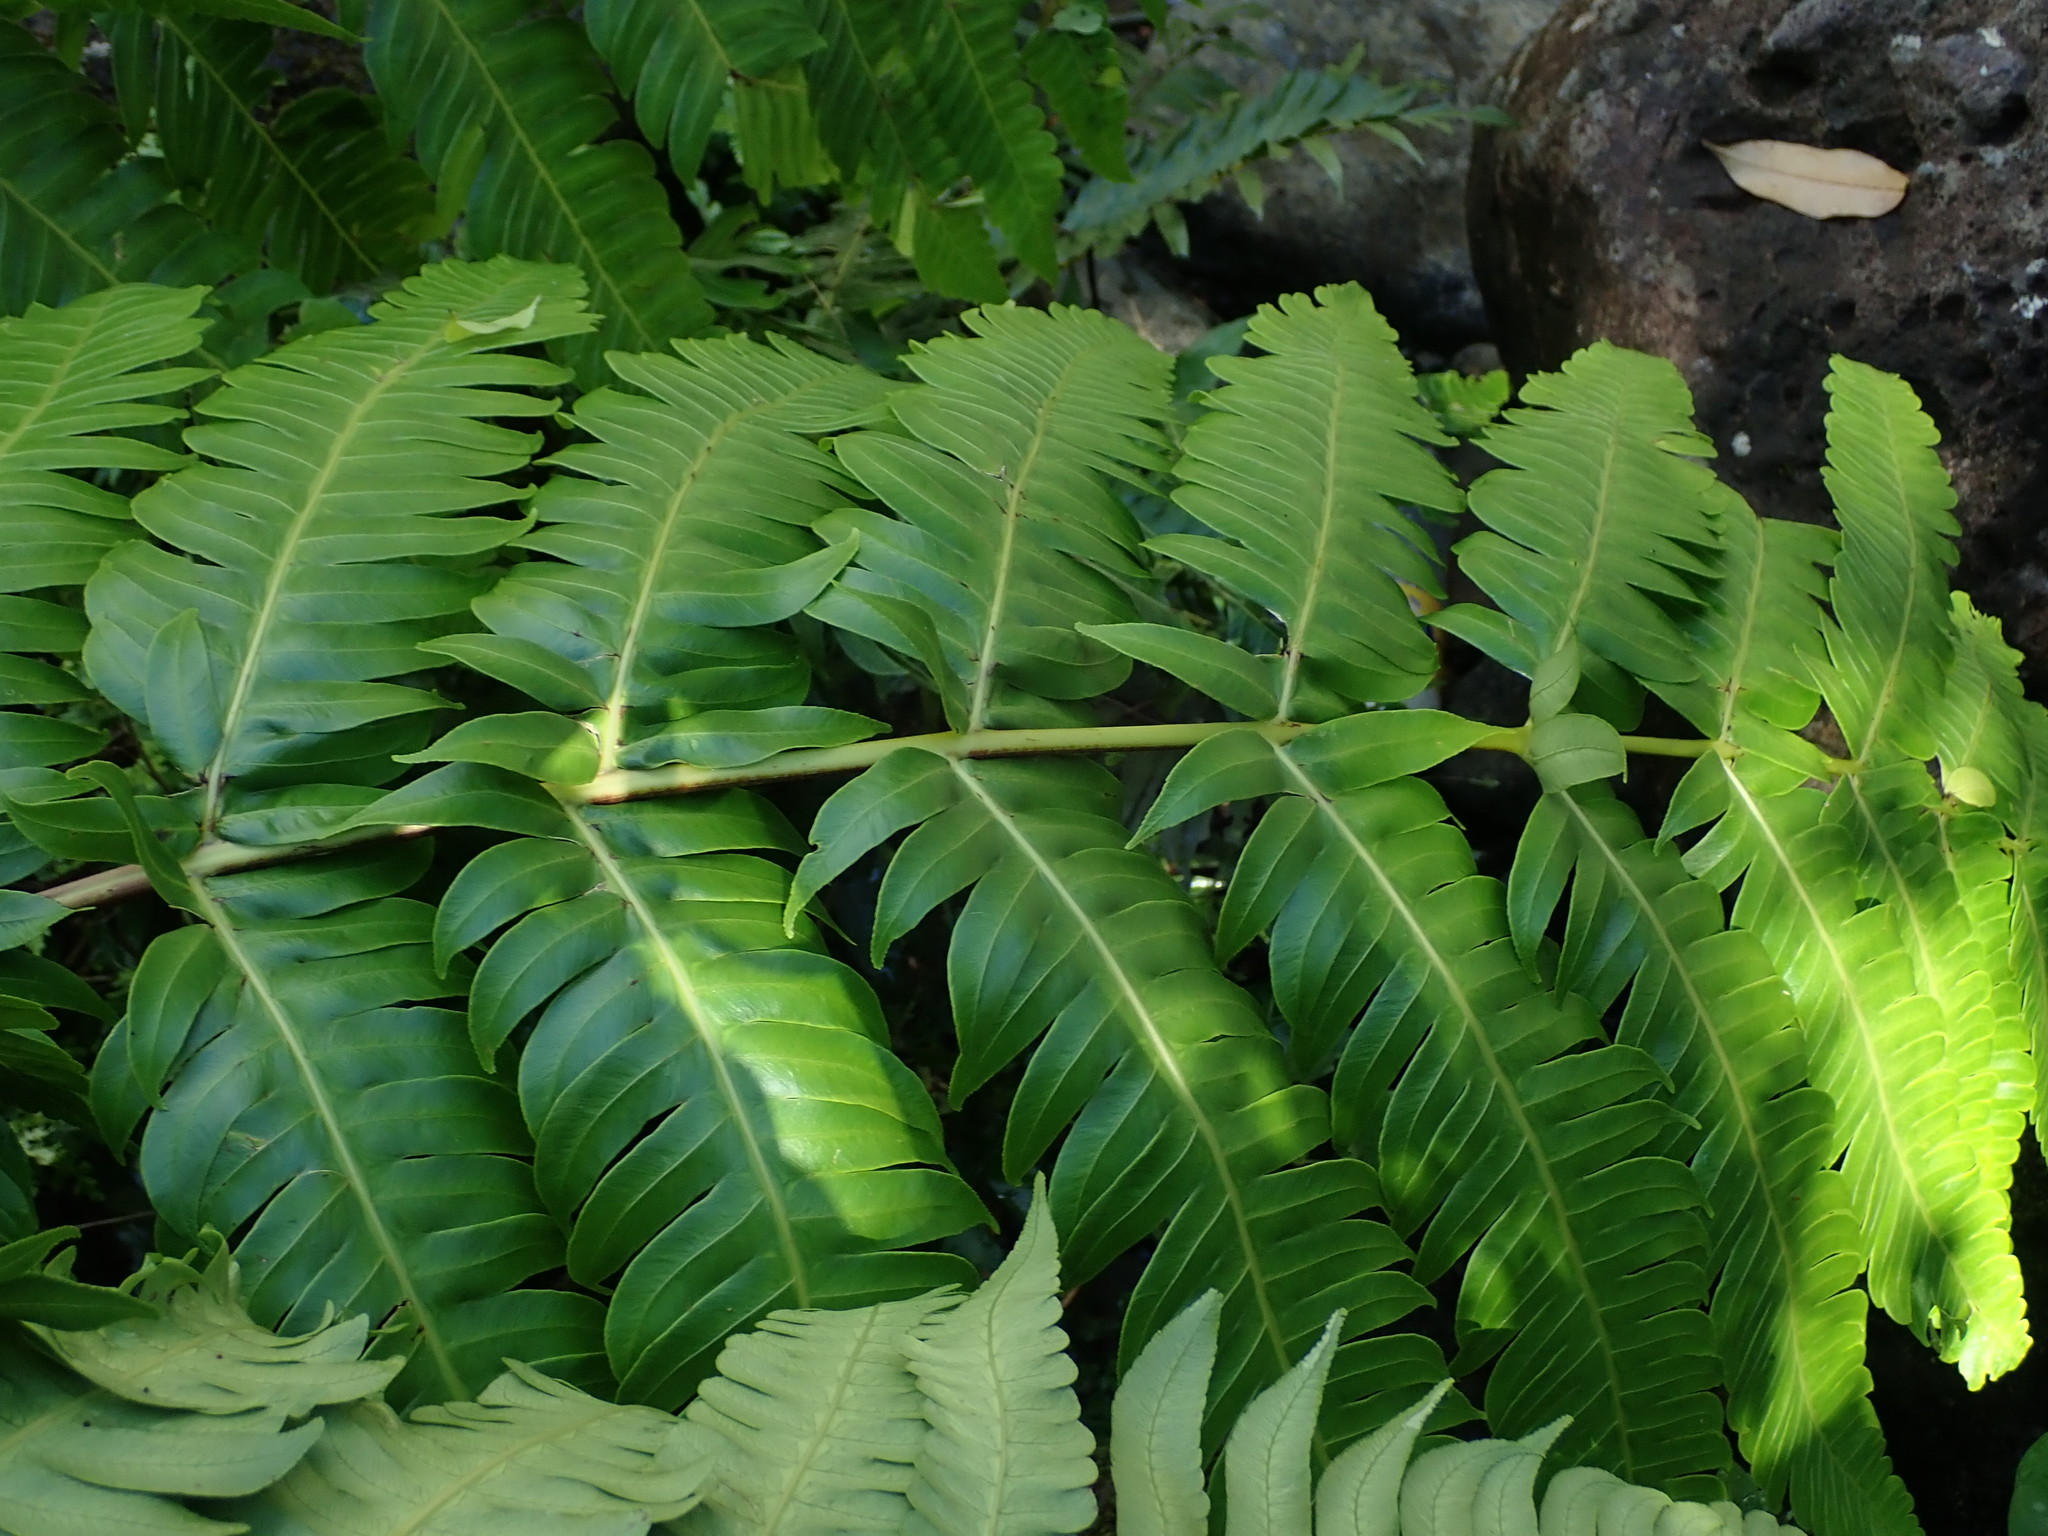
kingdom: Plantae
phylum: Tracheophyta
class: Polypodiopsida
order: Cyatheales
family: Cyatheaceae
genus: Cyathea
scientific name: Cyathea horrida
